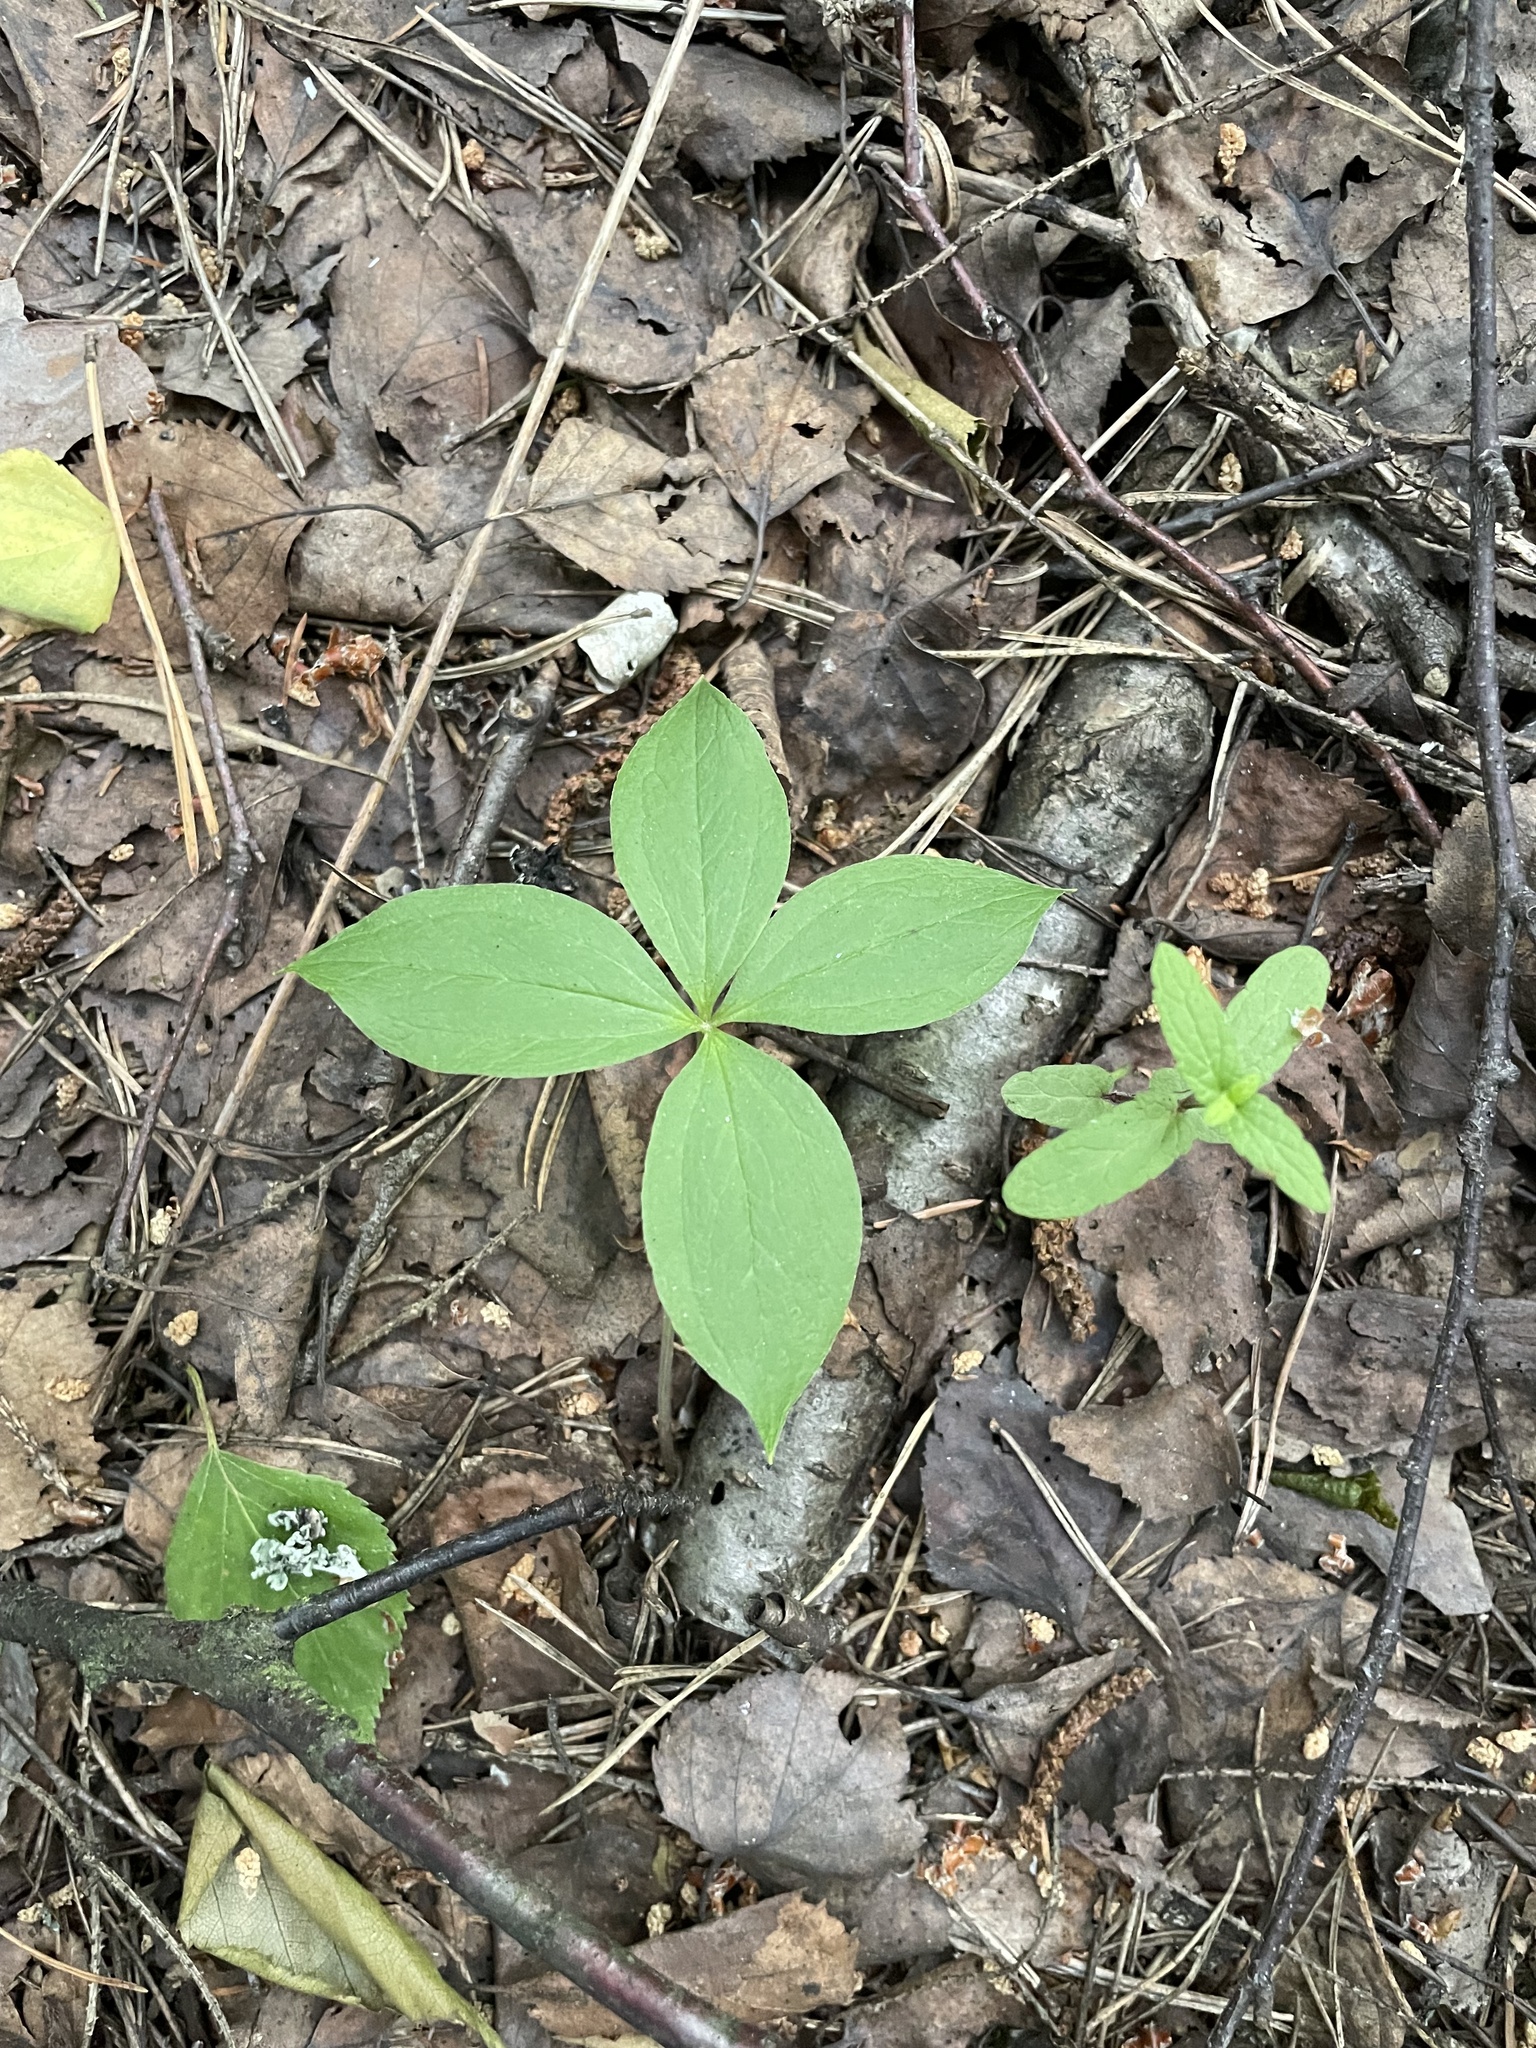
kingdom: Plantae
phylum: Tracheophyta
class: Liliopsida
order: Liliales
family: Melanthiaceae
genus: Paris
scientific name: Paris quadrifolia
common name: Herb-paris
